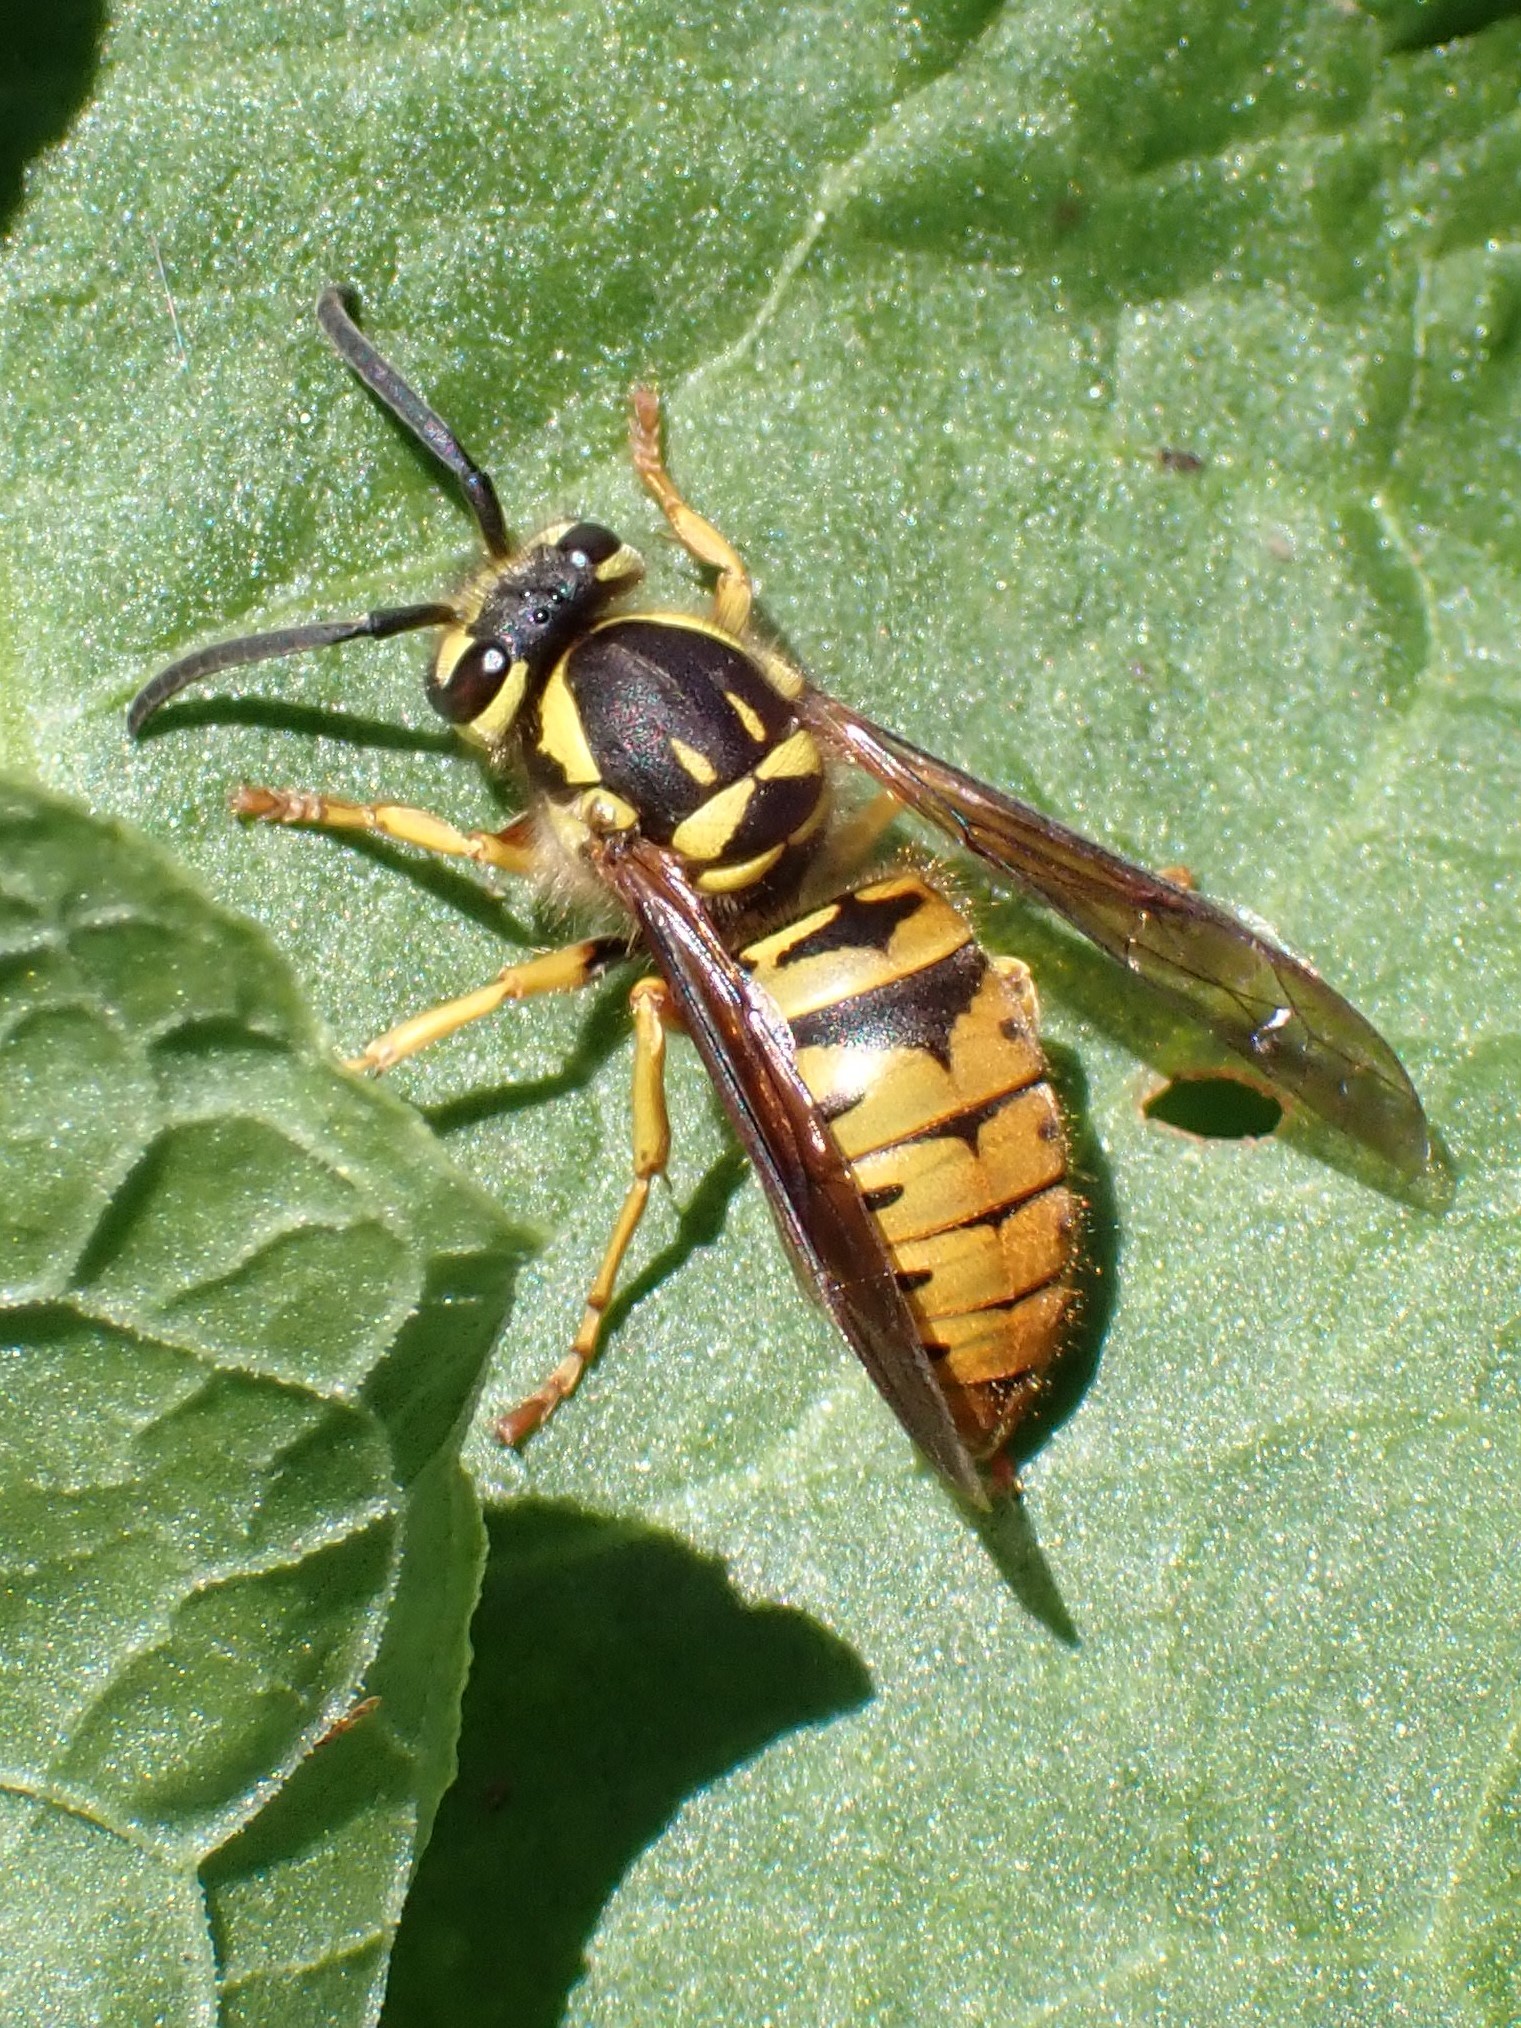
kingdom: Animalia
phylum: Arthropoda
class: Insecta
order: Hymenoptera
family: Vespidae
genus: Vespula
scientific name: Vespula maculifrons
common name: Eastern yellowjacket
